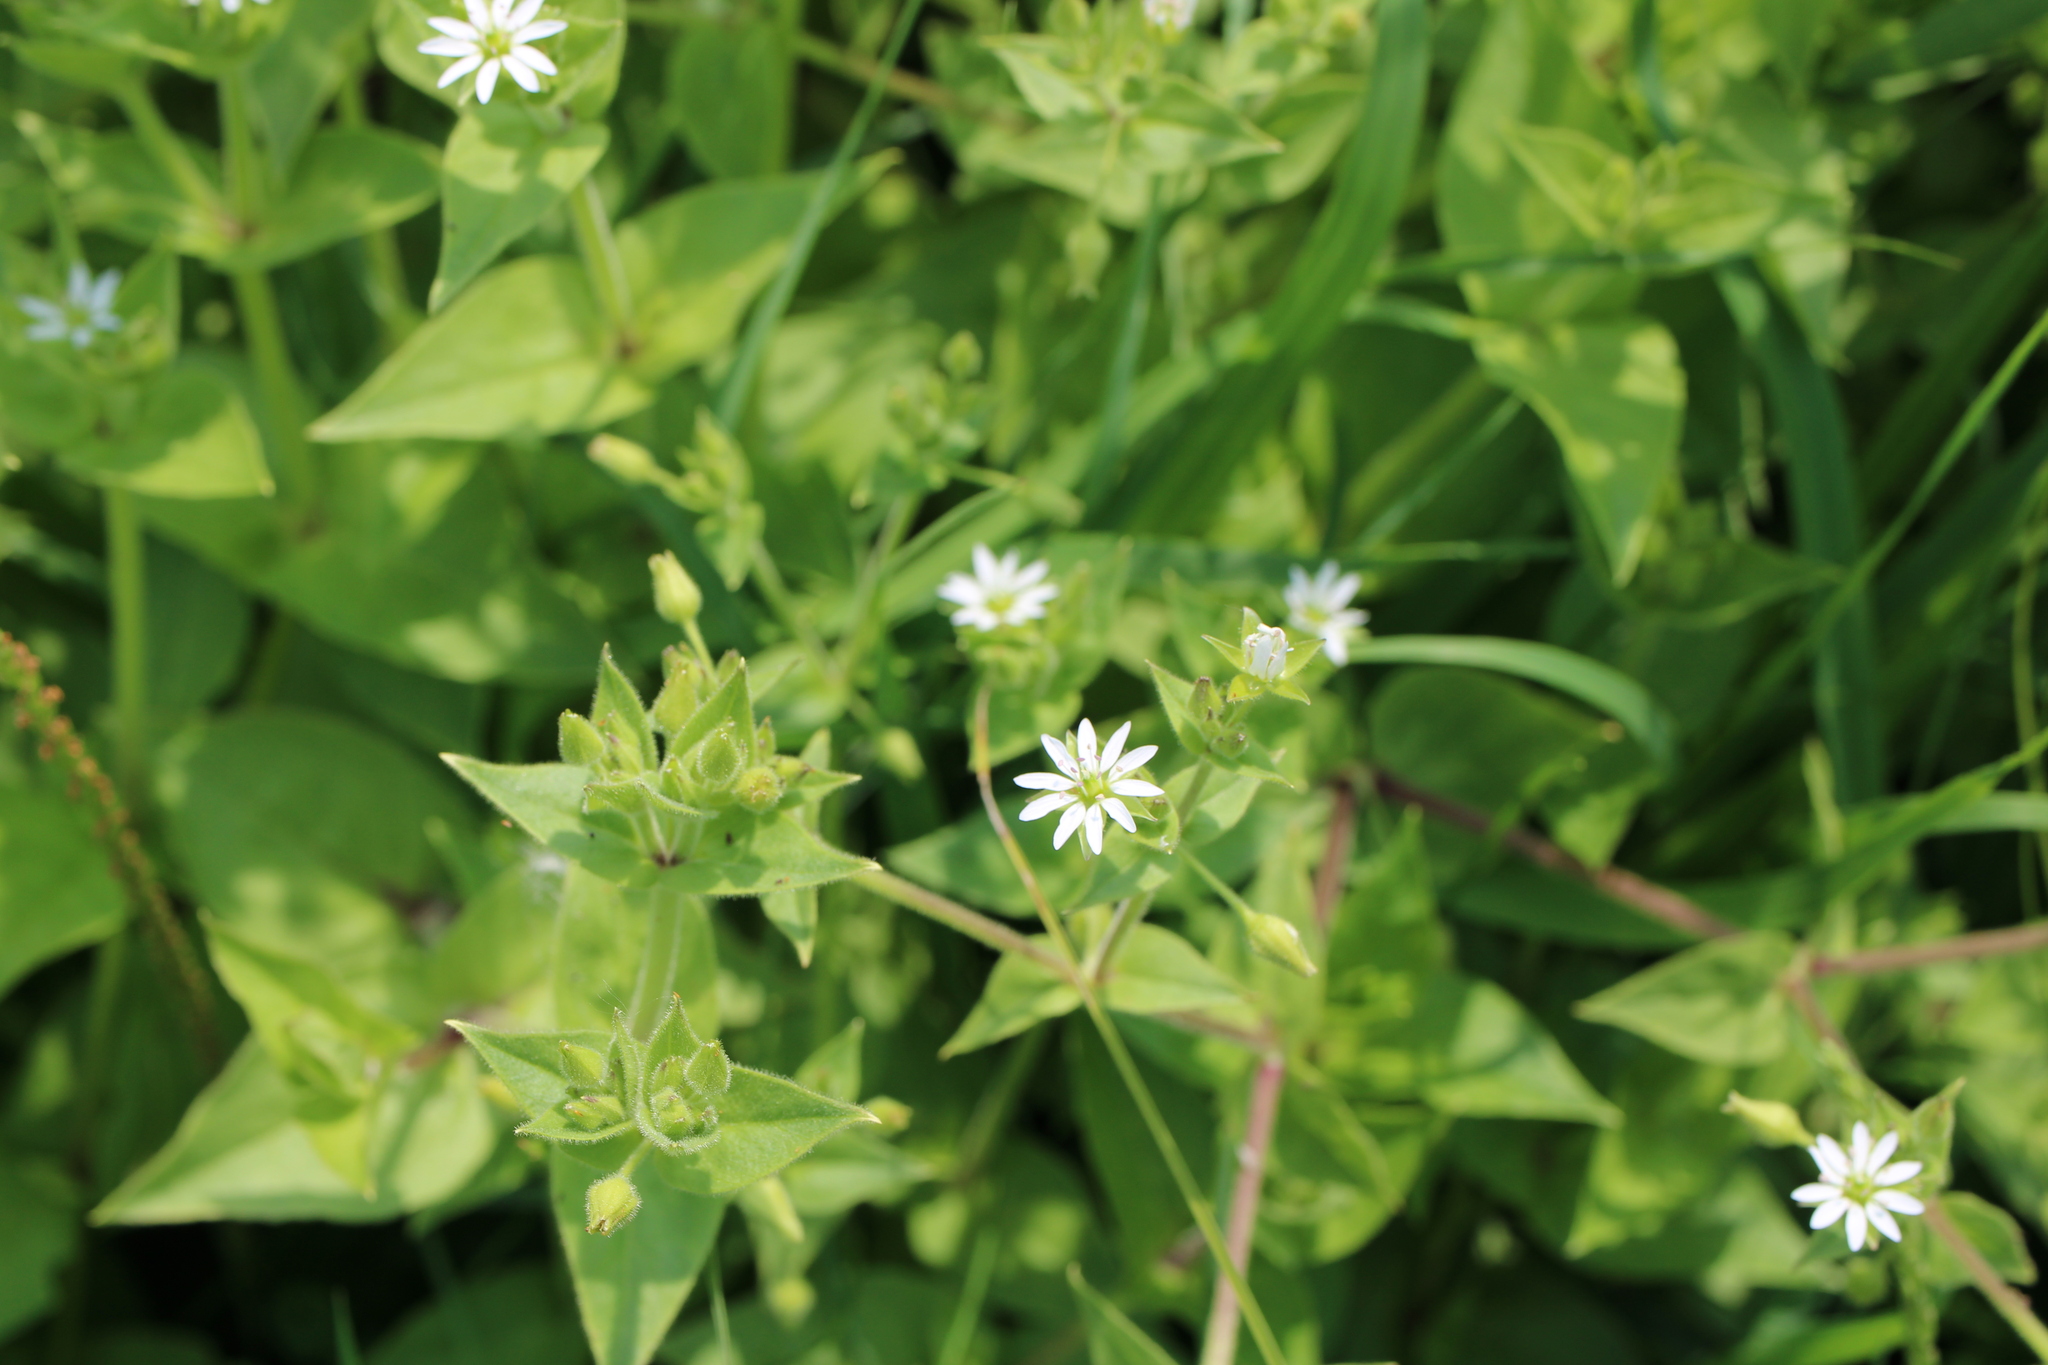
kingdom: Plantae
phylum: Tracheophyta
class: Magnoliopsida
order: Caryophyllales
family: Caryophyllaceae
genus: Stellaria
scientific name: Stellaria aquatica
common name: Water chickweed
